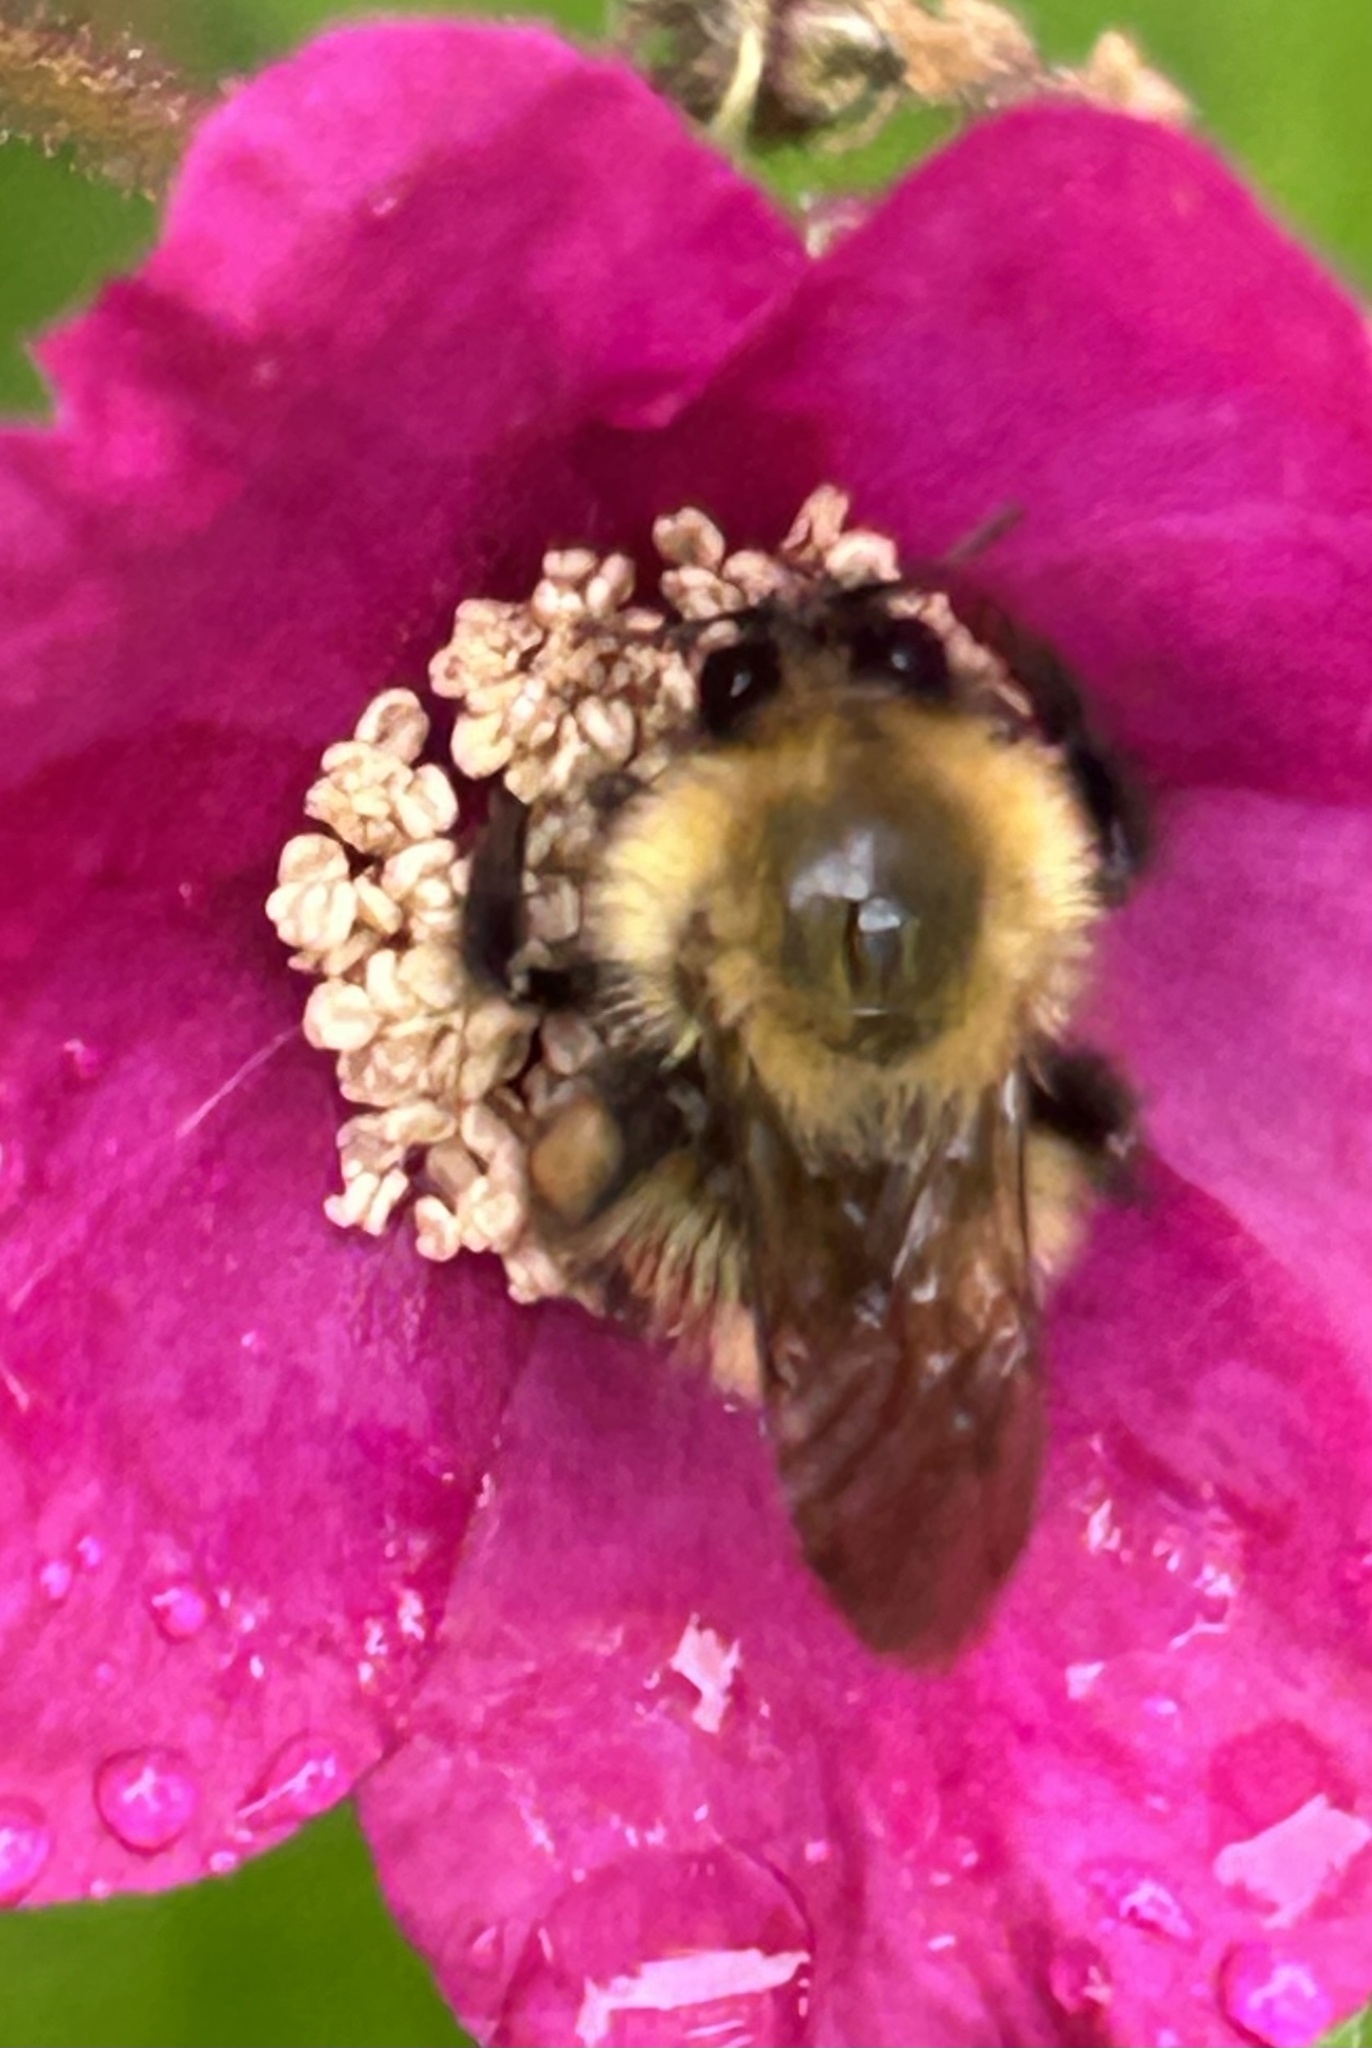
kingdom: Animalia
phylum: Arthropoda
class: Insecta
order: Hymenoptera
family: Apidae
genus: Bombus
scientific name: Bombus perplexus
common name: Confusing bumble bee
